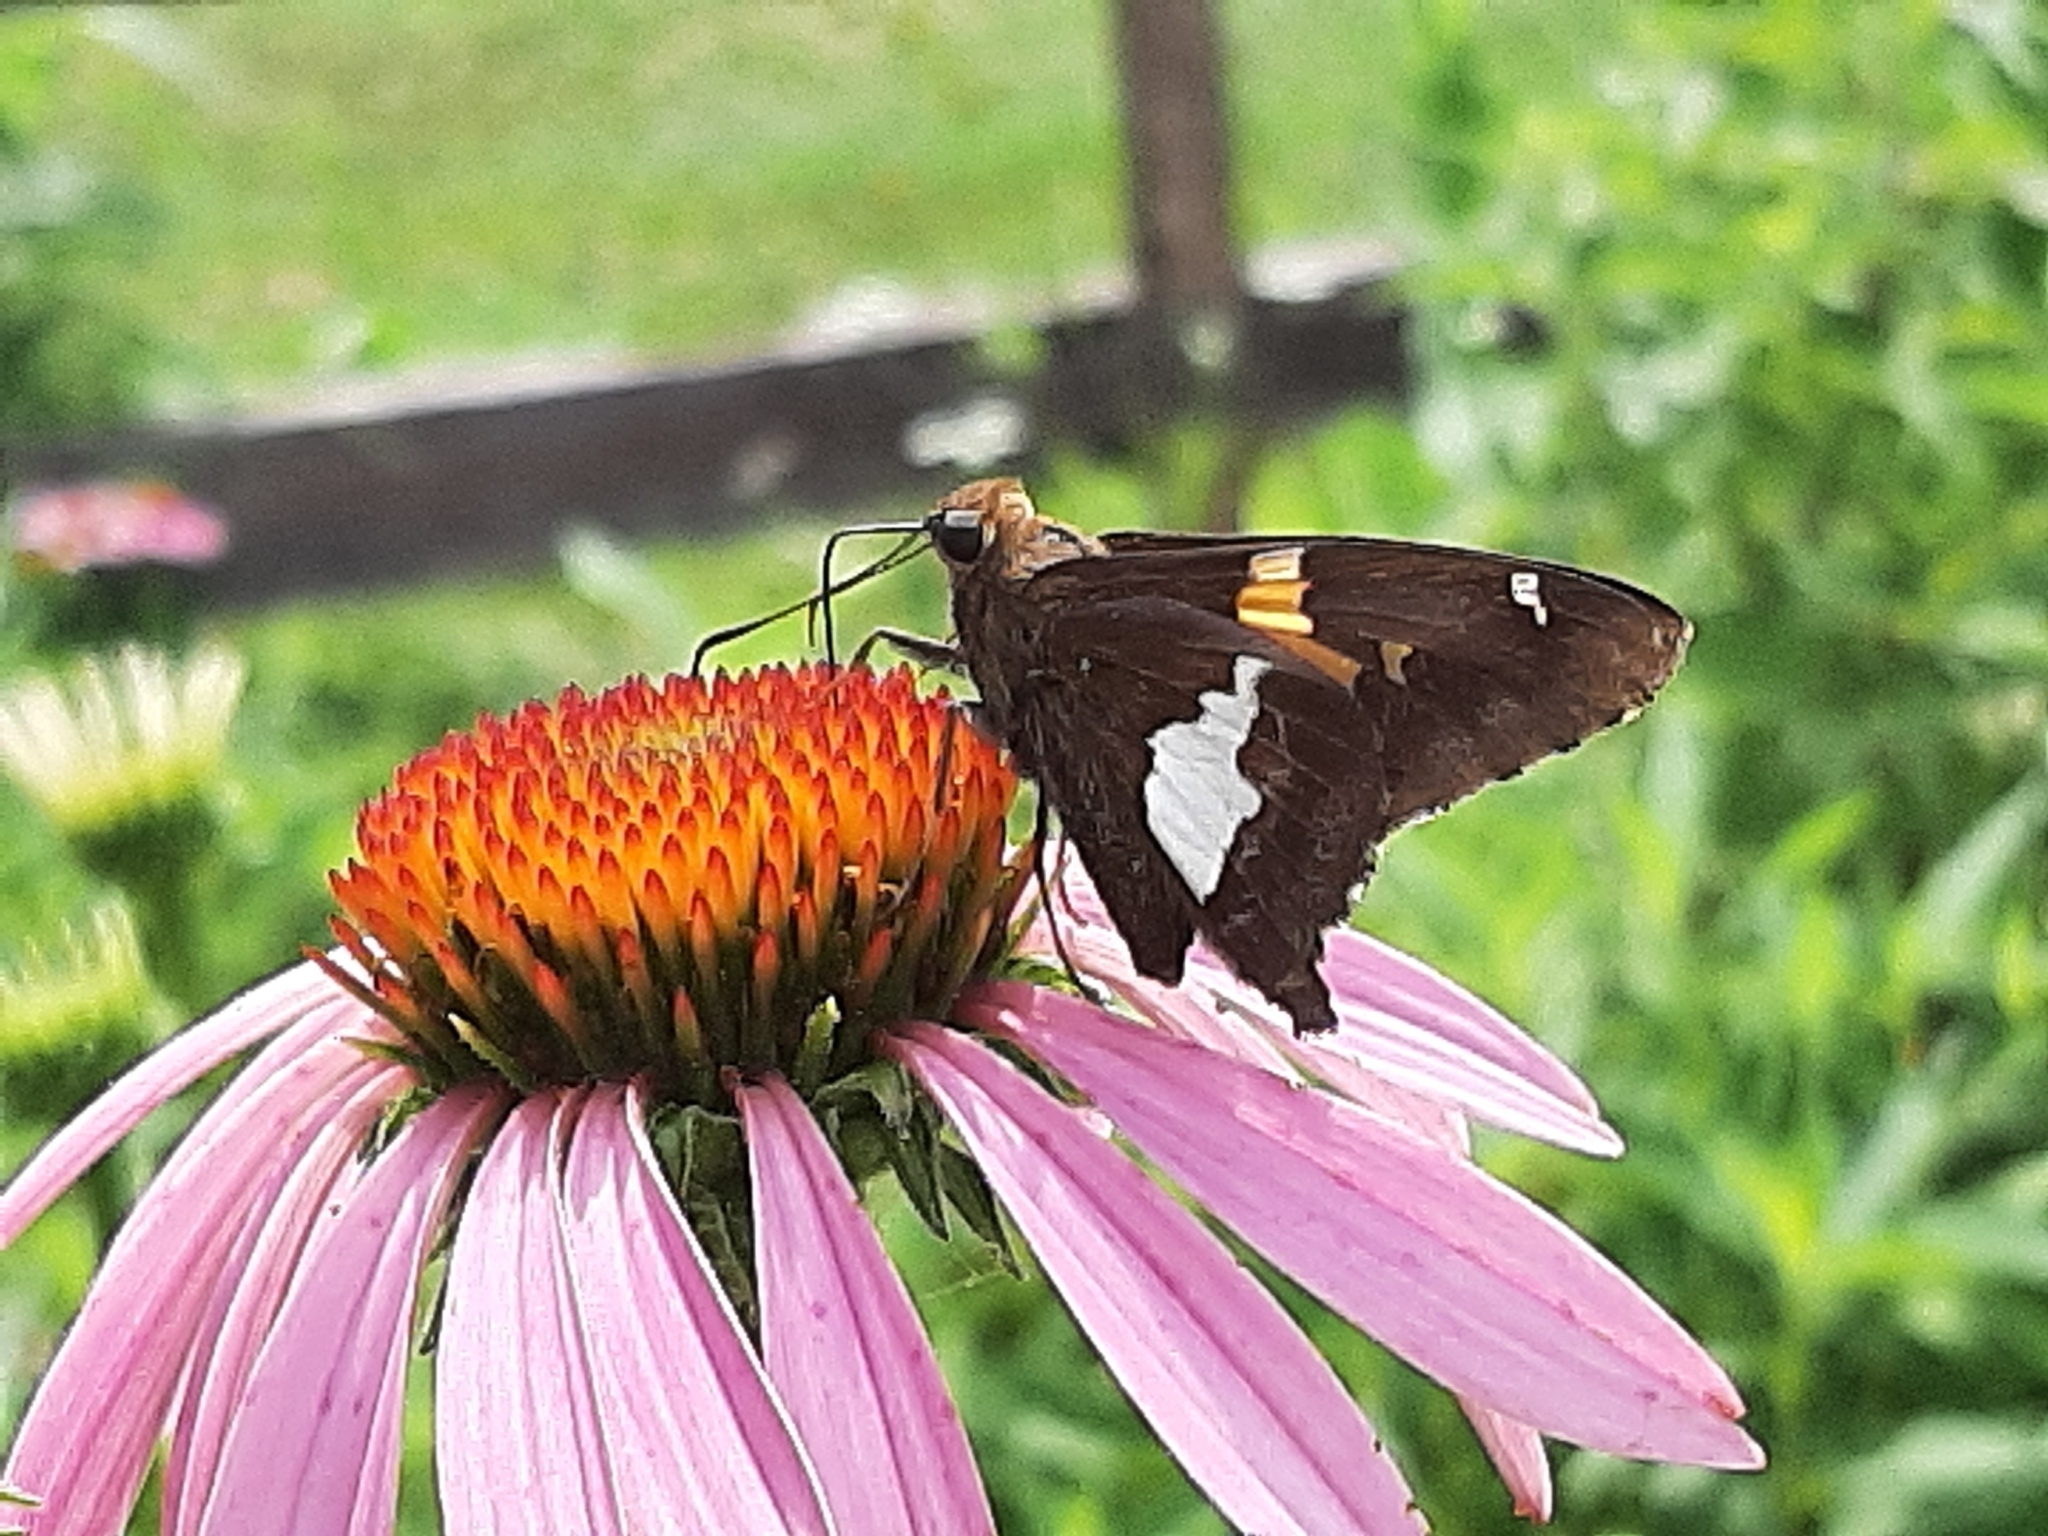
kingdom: Animalia
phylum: Arthropoda
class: Insecta
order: Lepidoptera
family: Hesperiidae
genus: Epargyreus
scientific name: Epargyreus clarus
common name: Silver-spotted skipper
